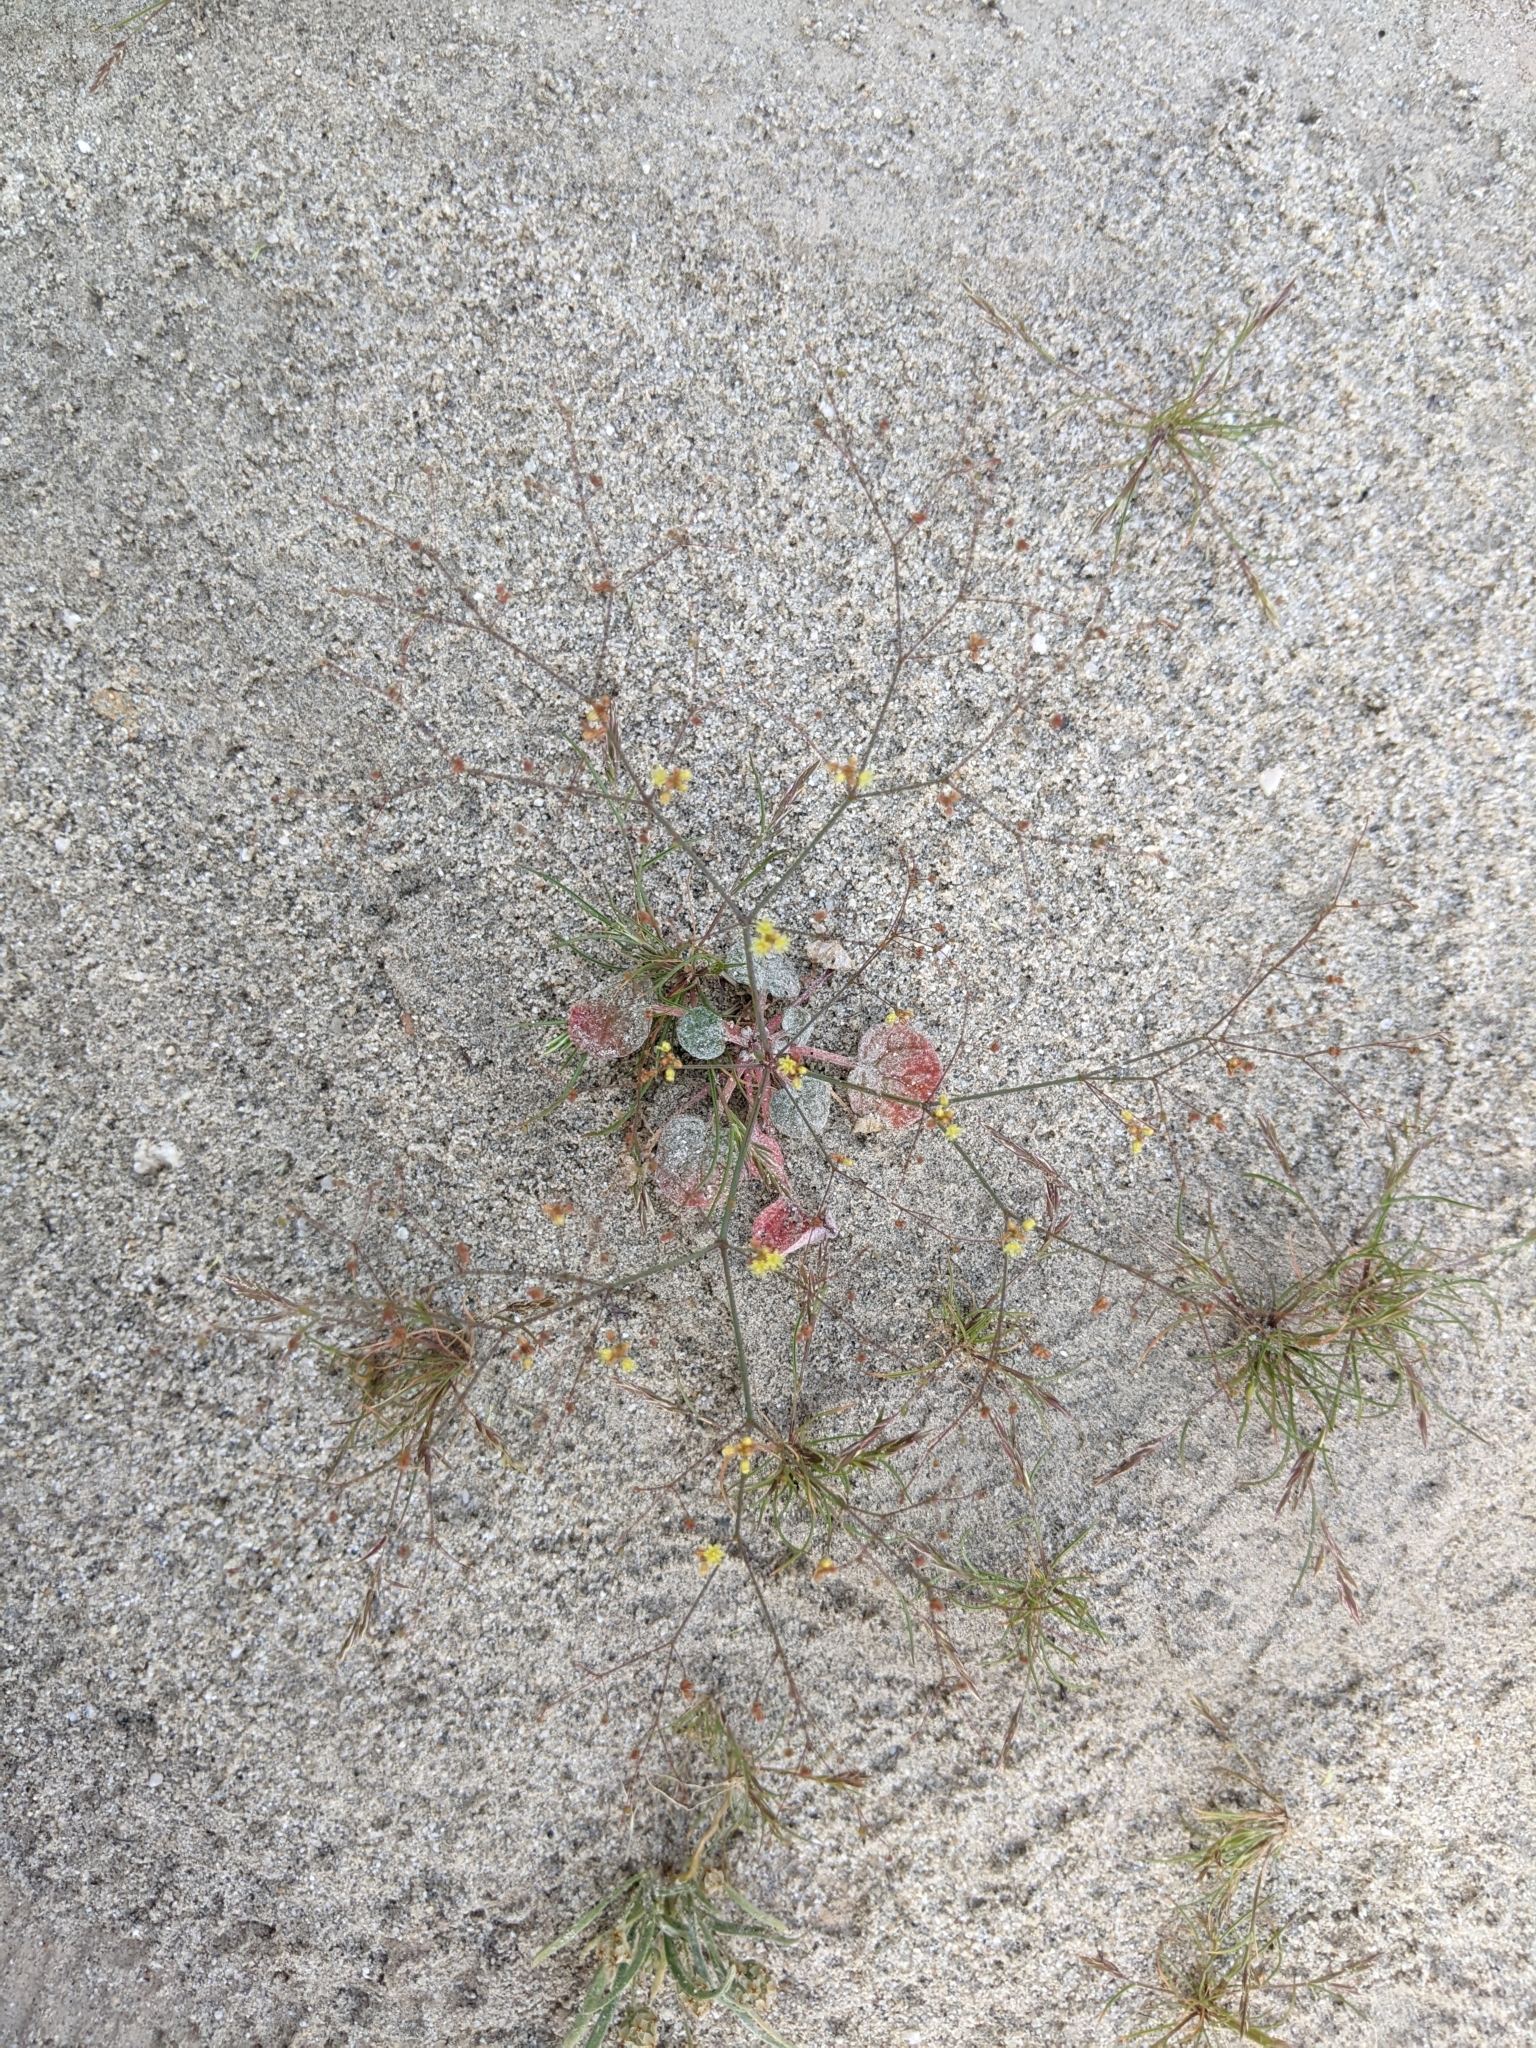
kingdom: Plantae
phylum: Tracheophyta
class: Magnoliopsida
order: Caryophyllales
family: Polygonaceae
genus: Eriogonum
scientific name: Eriogonum thomasii
